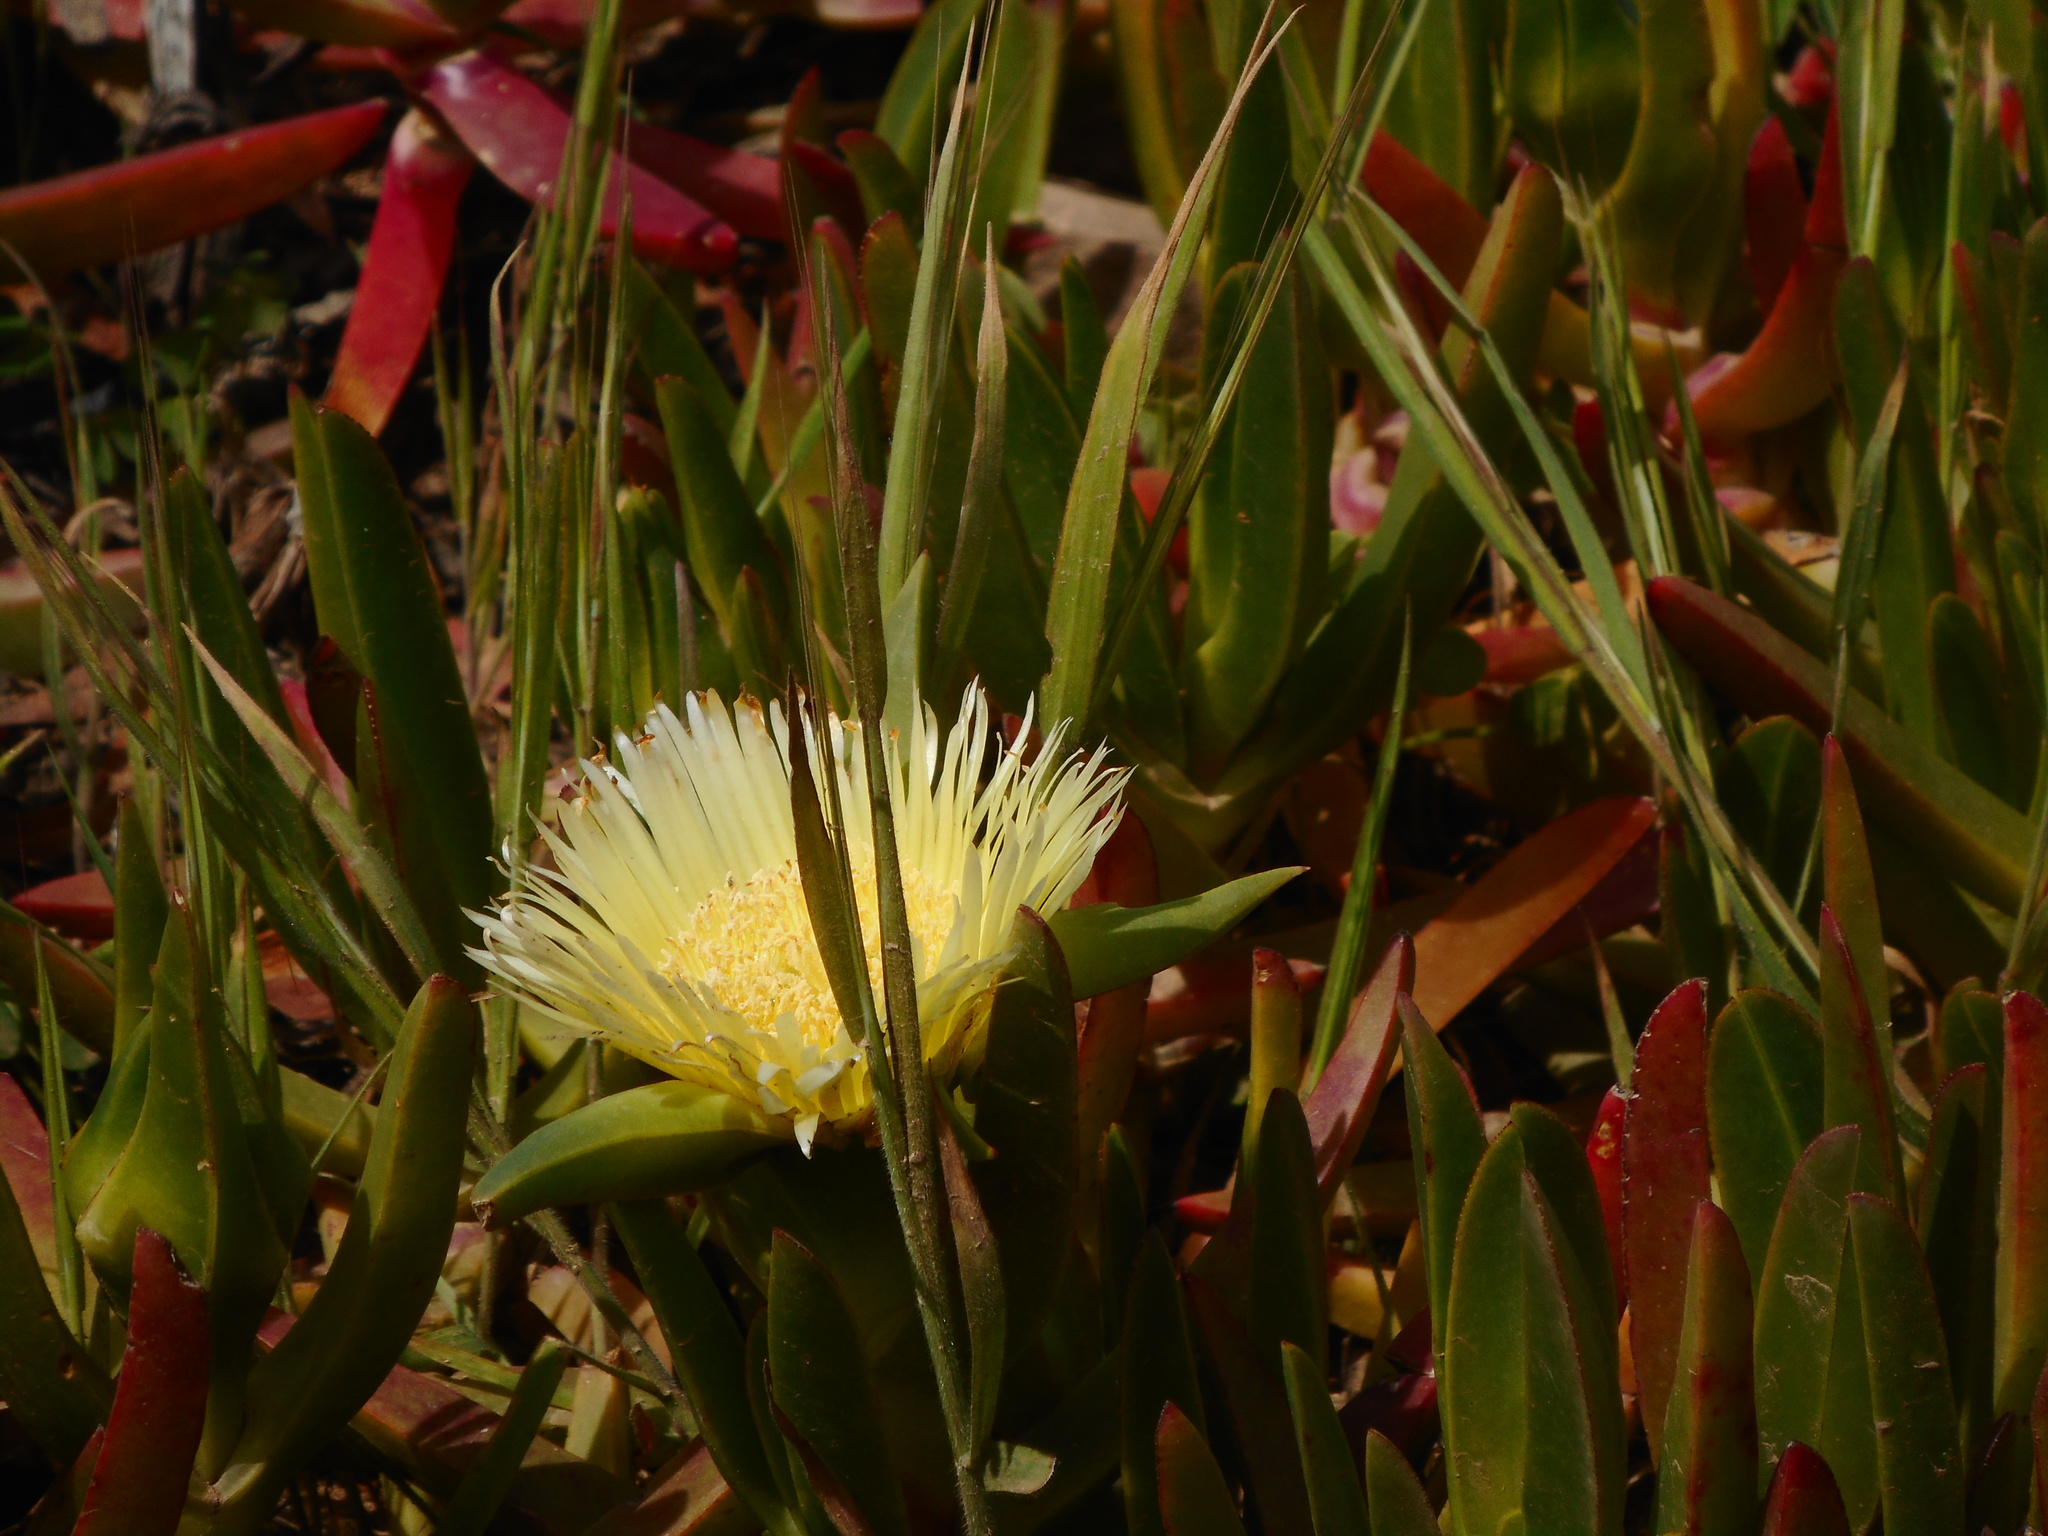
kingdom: Plantae
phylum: Tracheophyta
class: Magnoliopsida
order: Caryophyllales
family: Aizoaceae
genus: Carpobrotus
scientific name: Carpobrotus edulis
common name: Hottentot-fig
